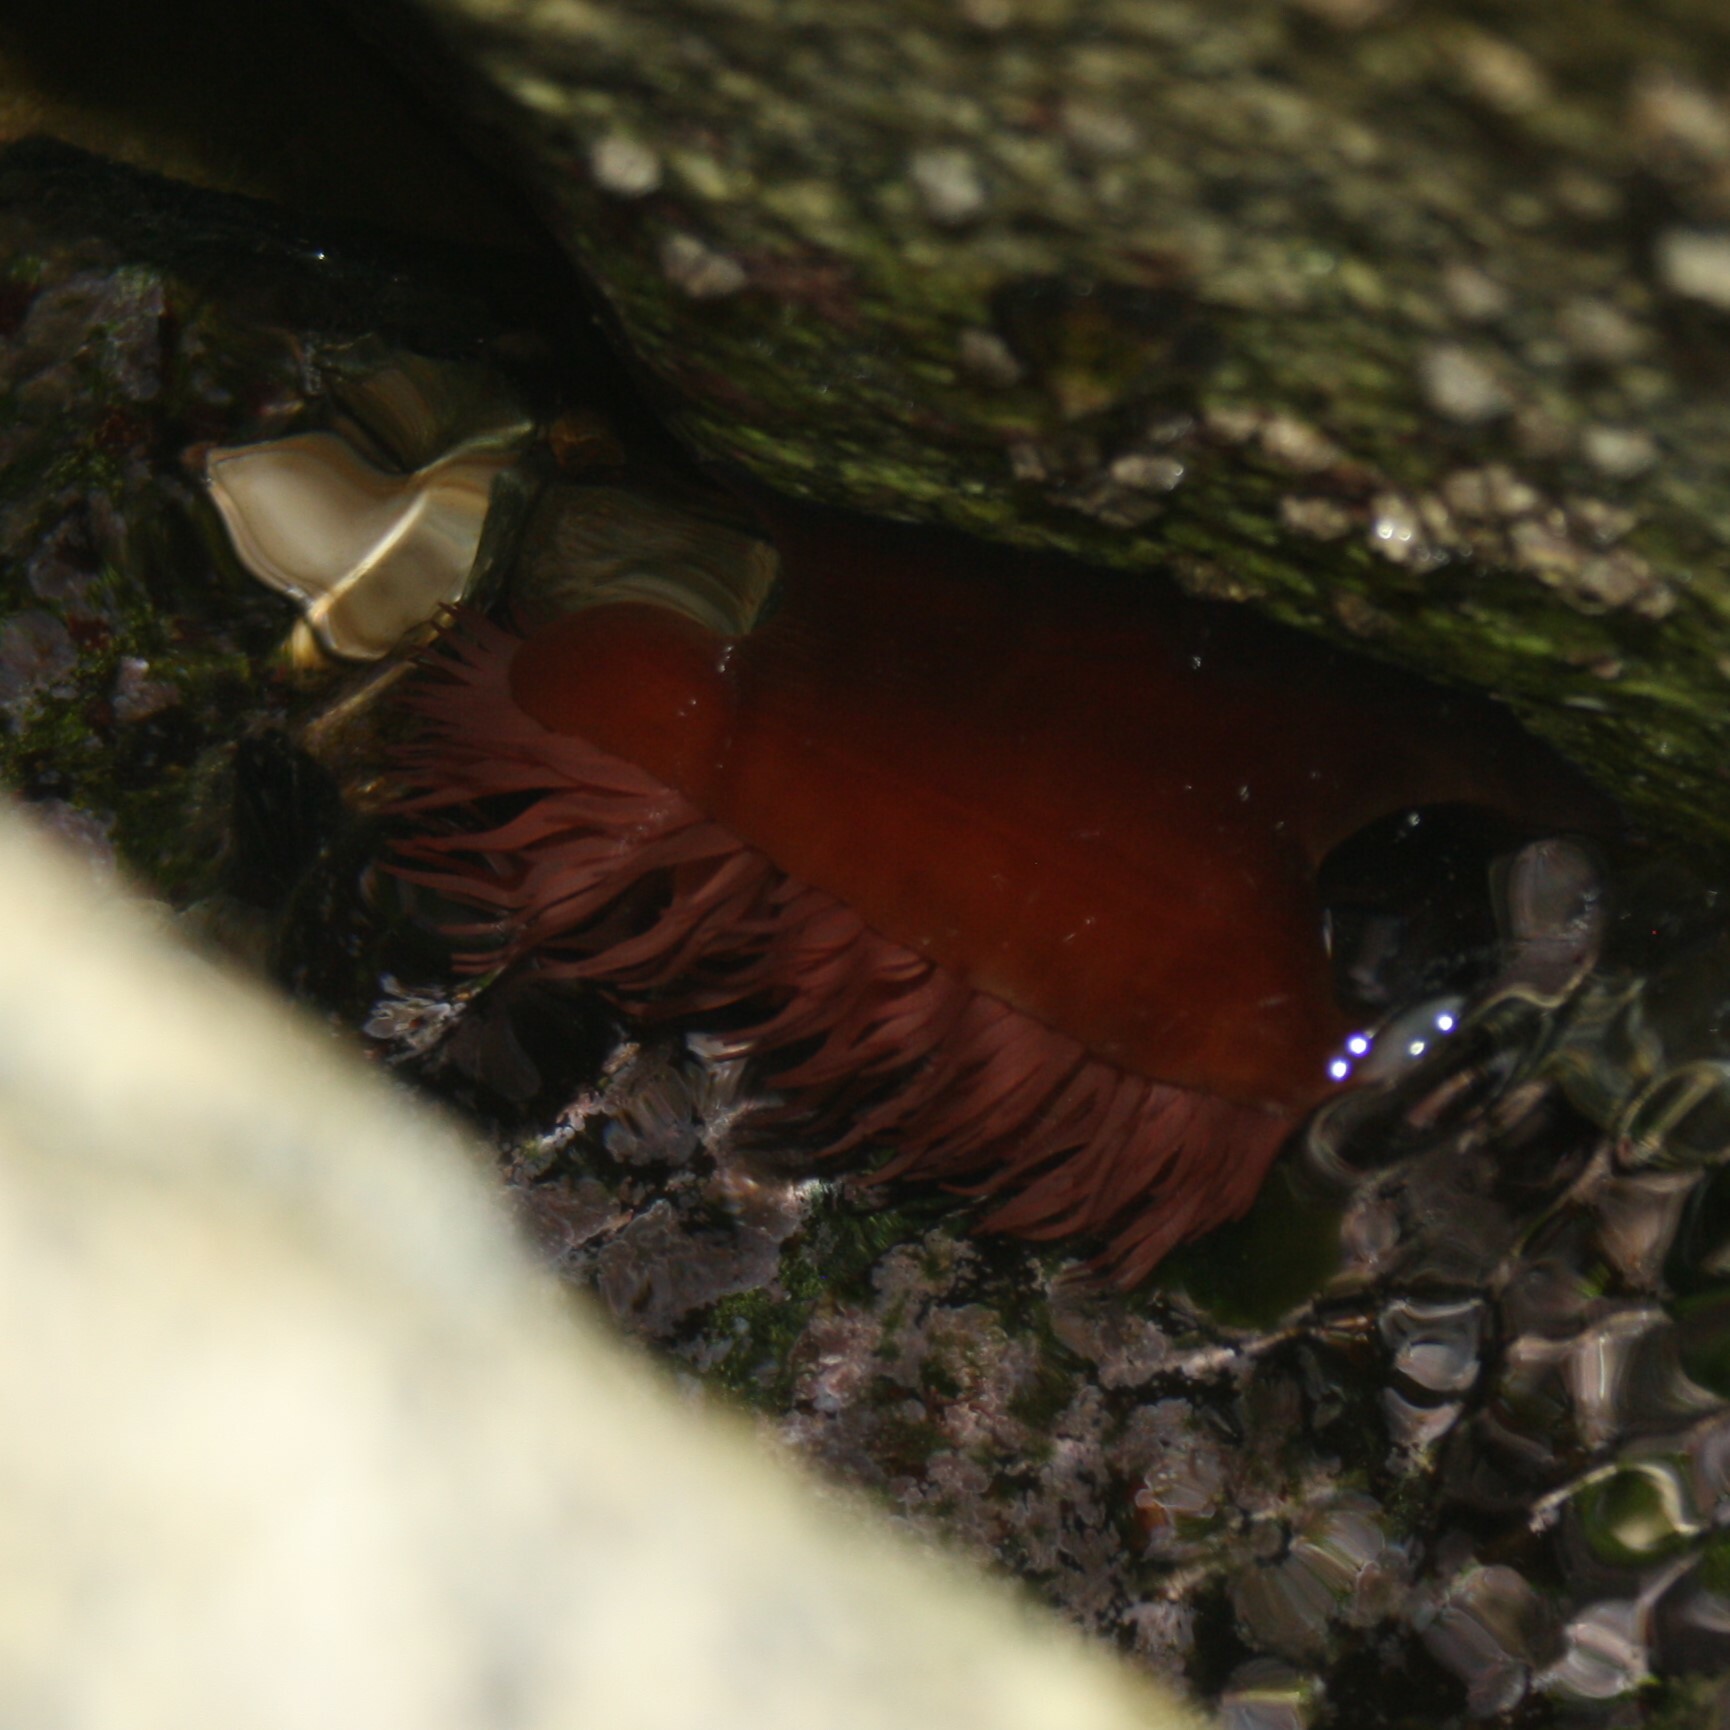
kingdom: Animalia
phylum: Cnidaria
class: Anthozoa
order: Actiniaria
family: Actiniidae
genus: Actinia
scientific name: Actinia mediterranea
